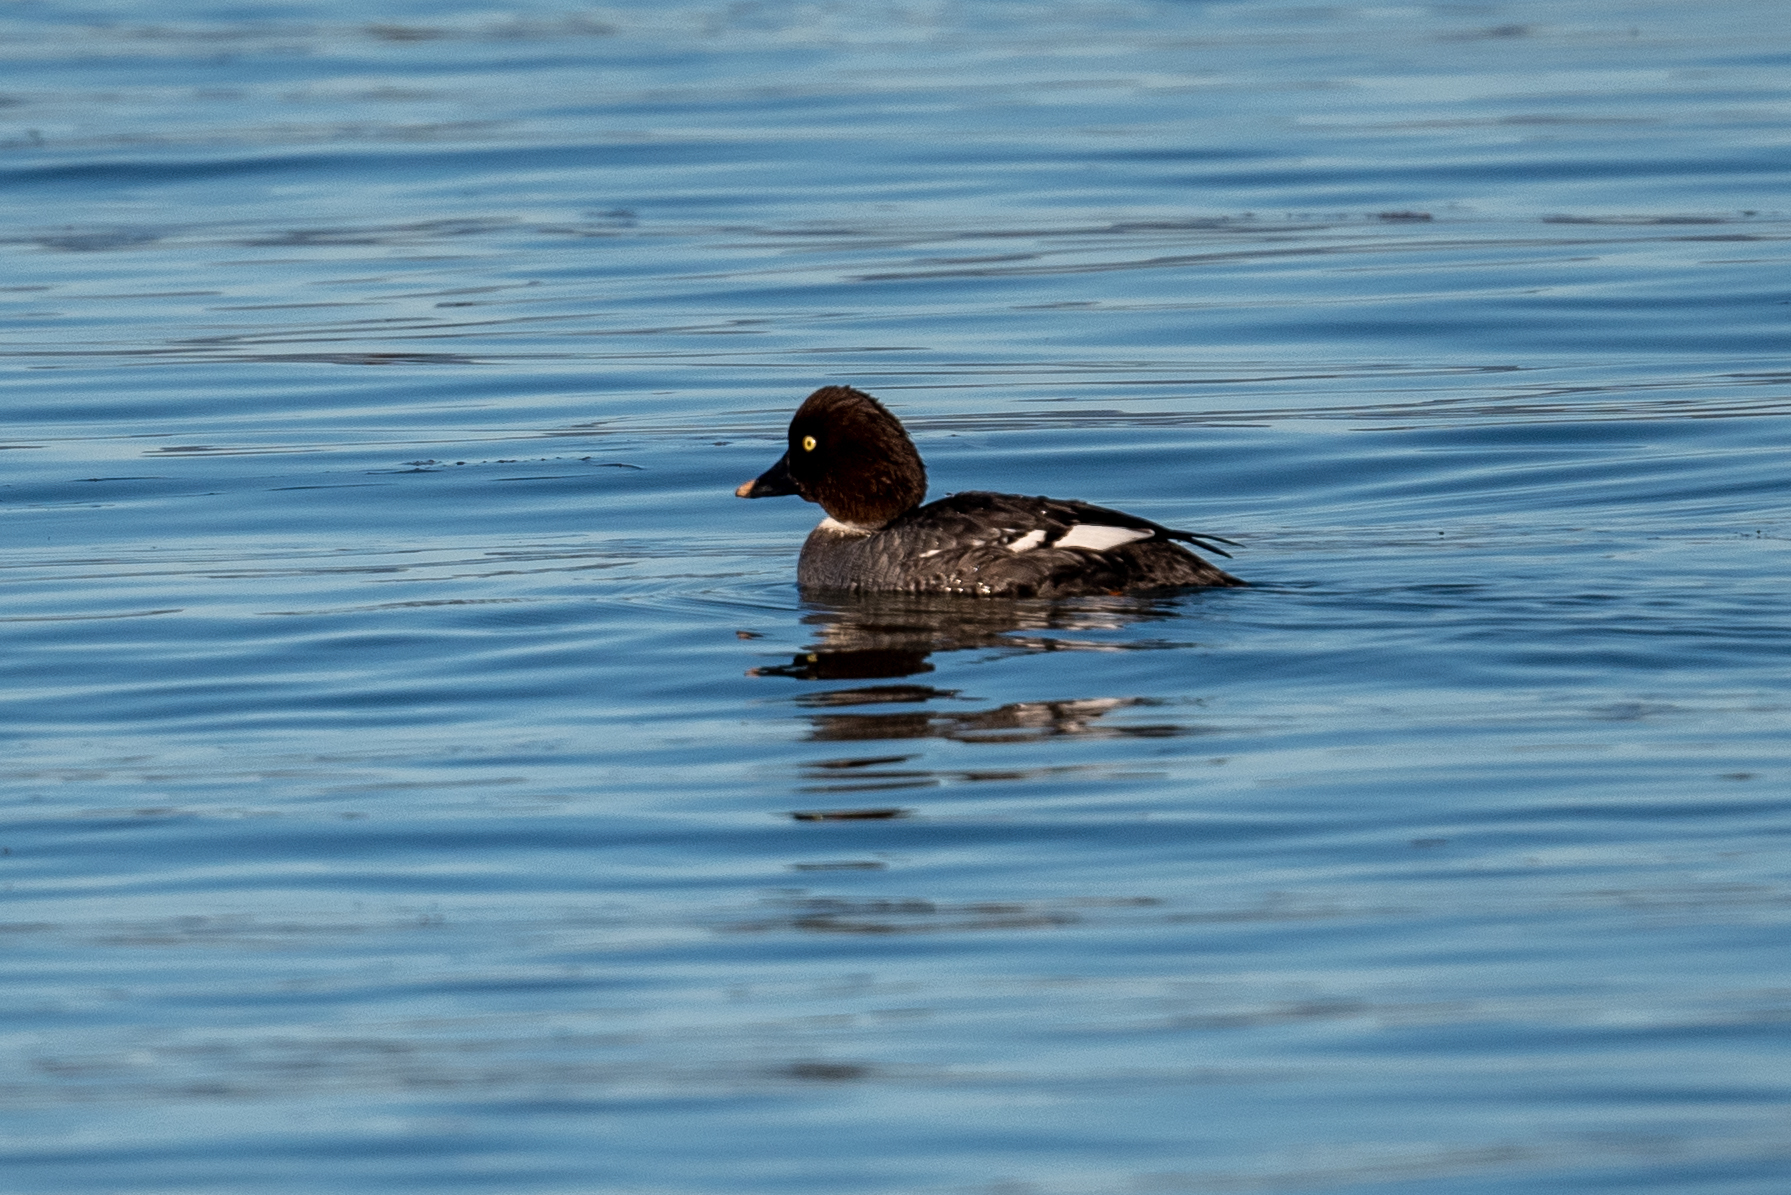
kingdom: Animalia
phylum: Chordata
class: Aves
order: Anseriformes
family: Anatidae
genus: Bucephala
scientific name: Bucephala clangula
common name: Common goldeneye
